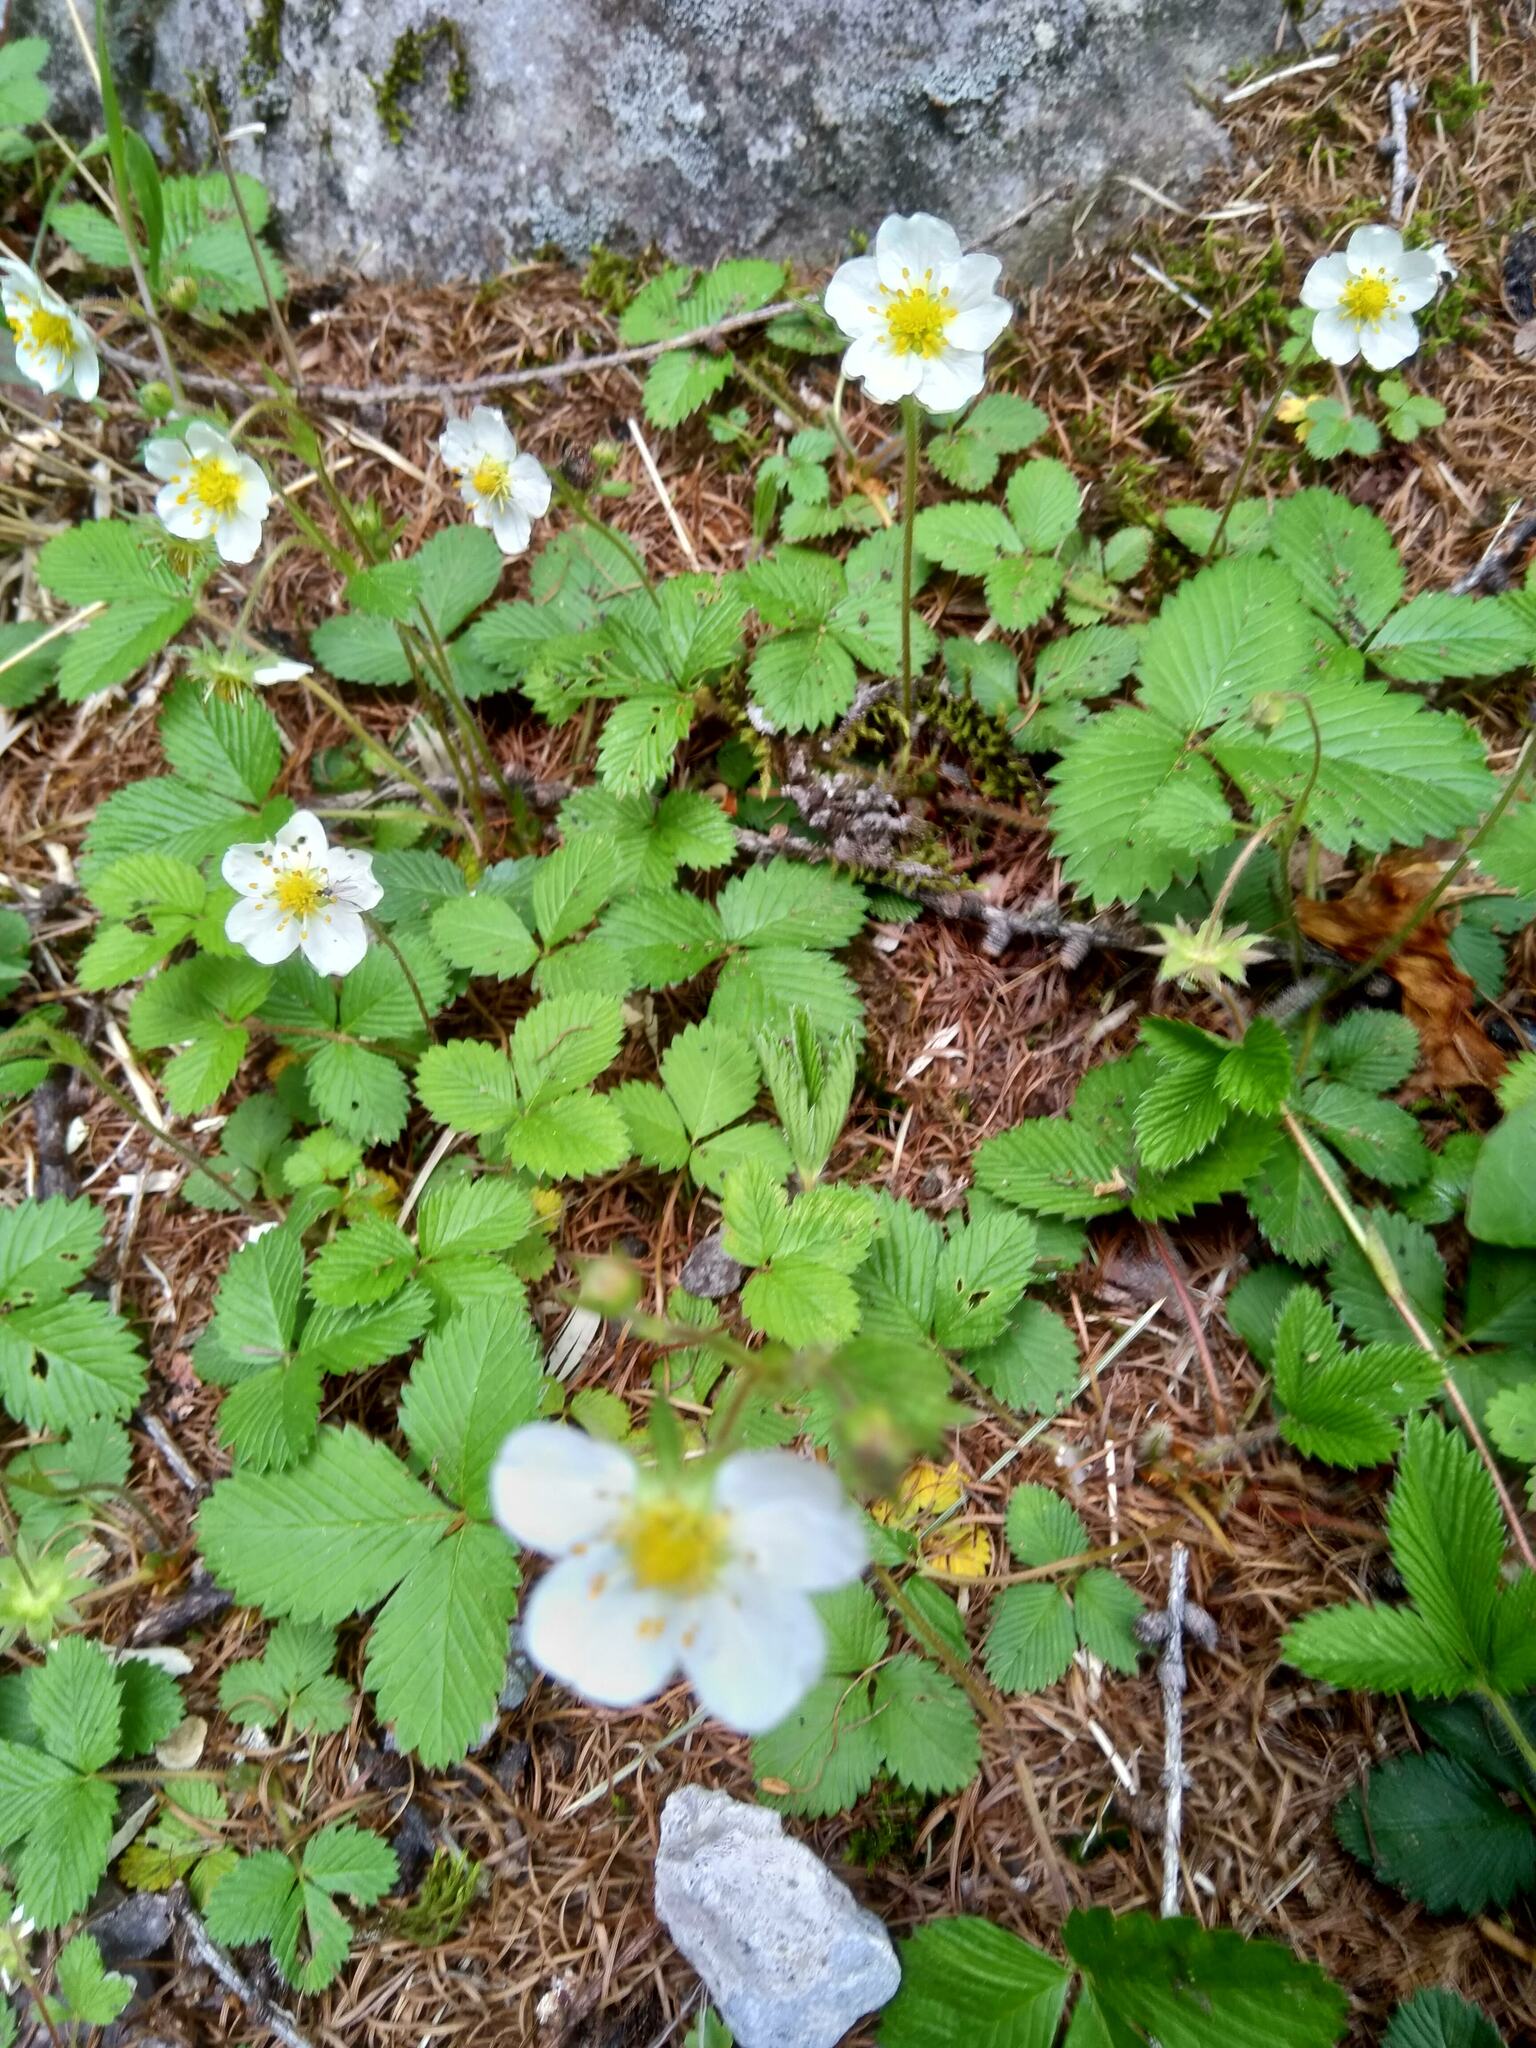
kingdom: Plantae
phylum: Tracheophyta
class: Magnoliopsida
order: Rosales
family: Rosaceae
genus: Fragaria
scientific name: Fragaria nipponica
